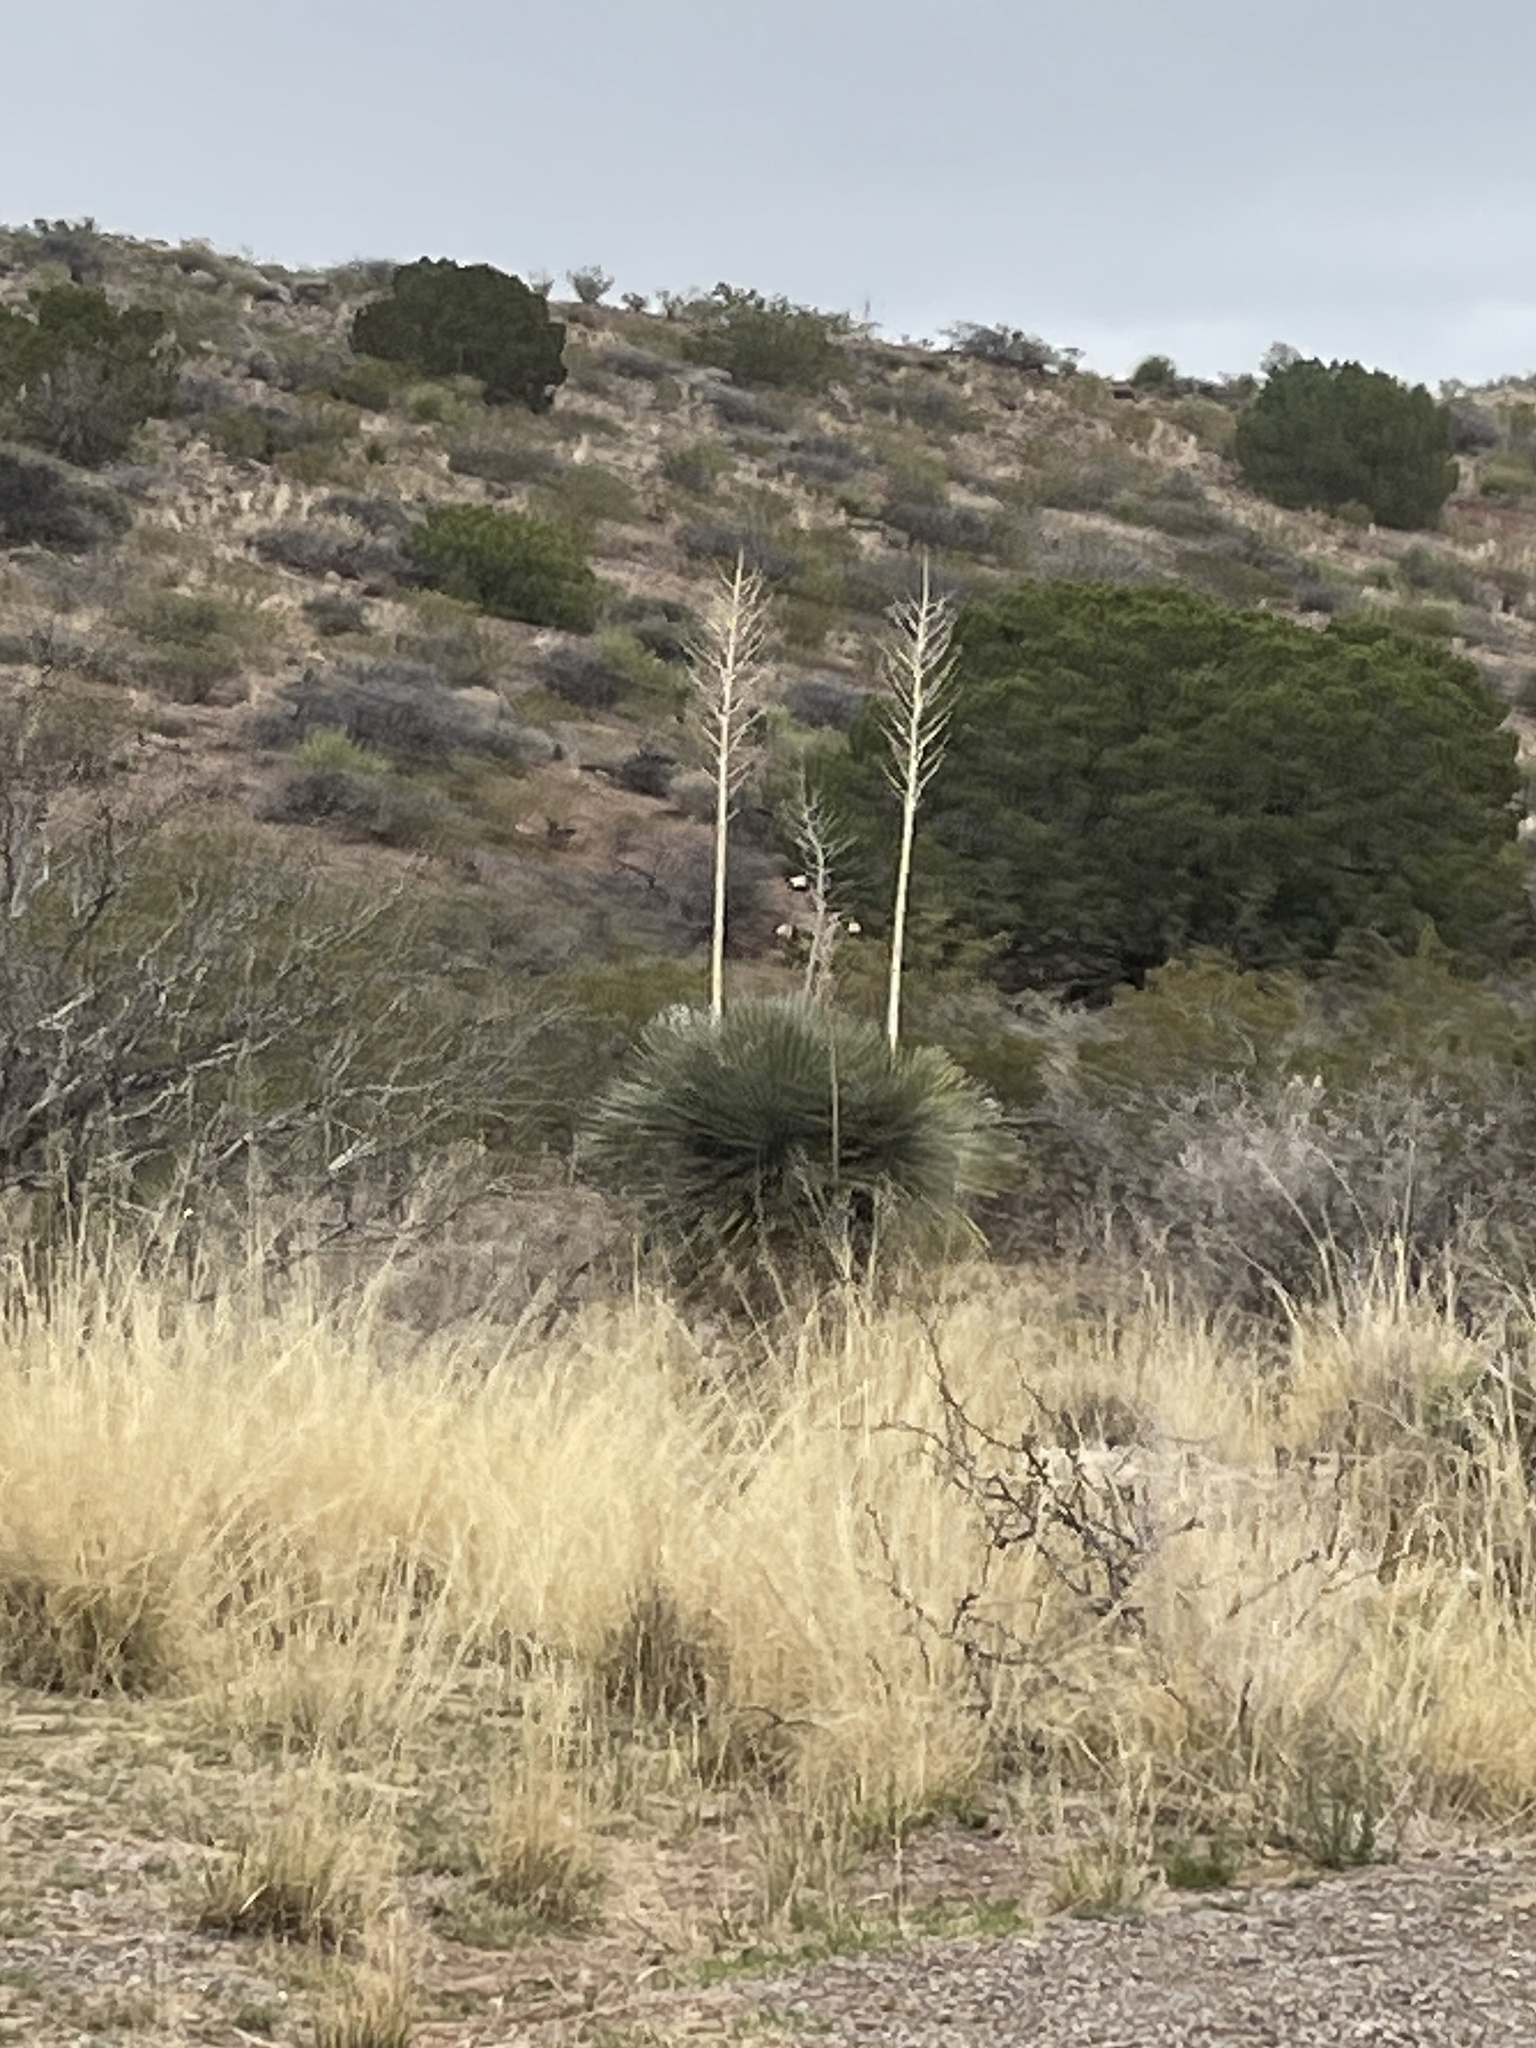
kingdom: Plantae
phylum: Tracheophyta
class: Liliopsida
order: Asparagales
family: Asparagaceae
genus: Yucca
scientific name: Yucca elata
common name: Palmella
